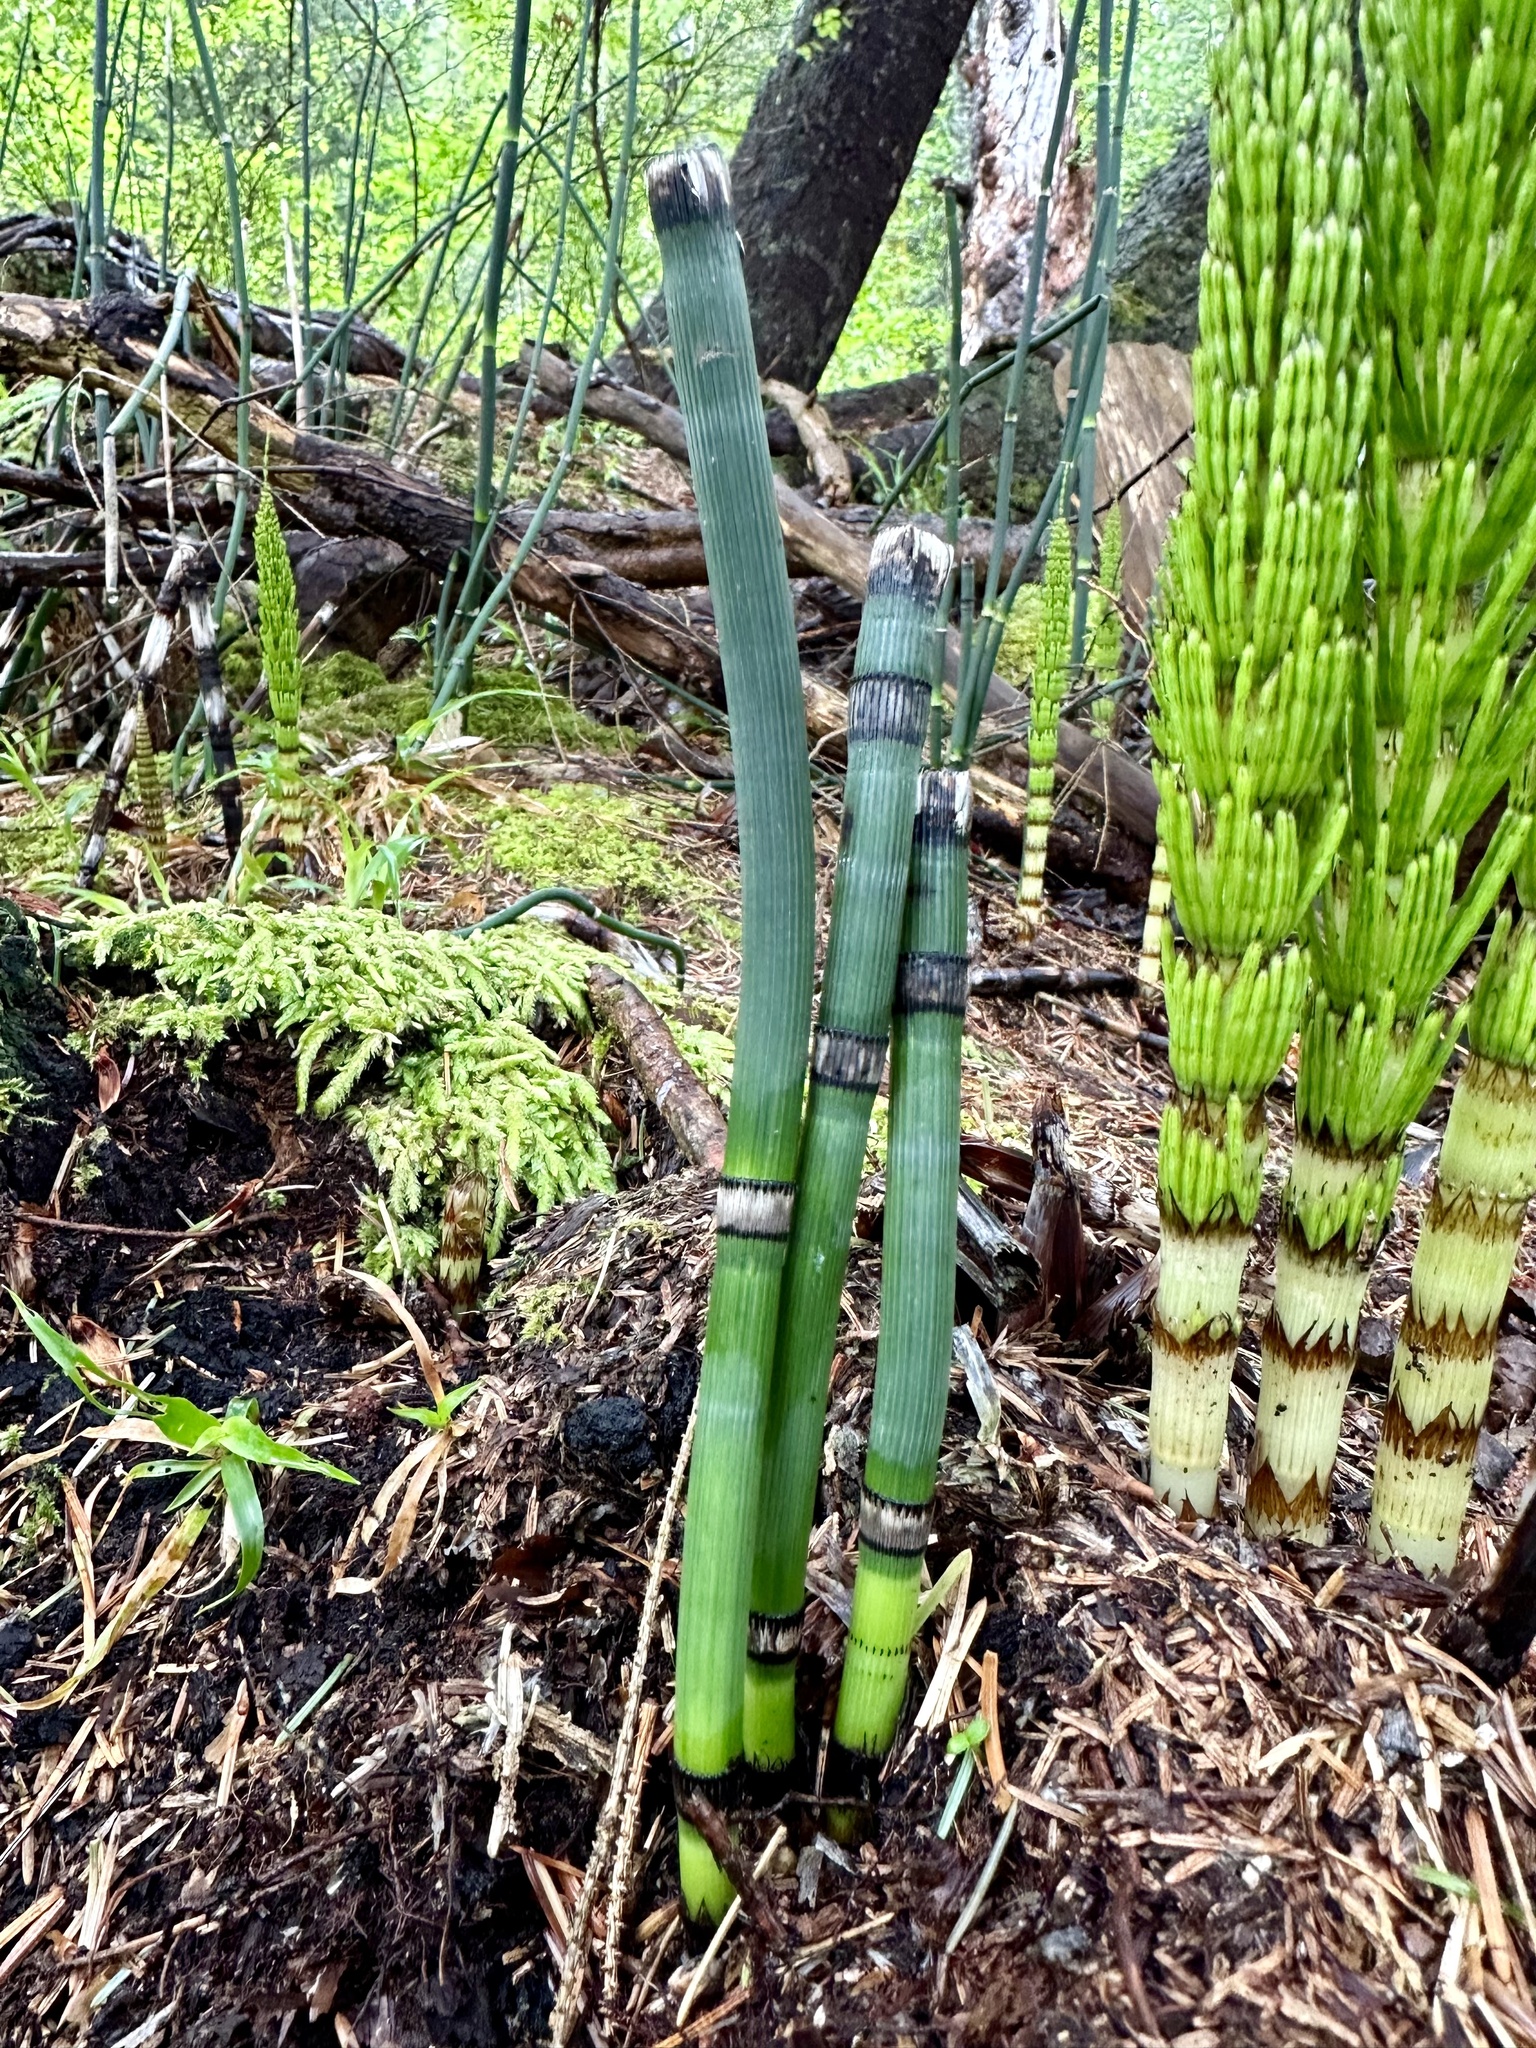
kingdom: Plantae
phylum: Tracheophyta
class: Polypodiopsida
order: Equisetales
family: Equisetaceae
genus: Equisetum
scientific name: Equisetum praealtum
